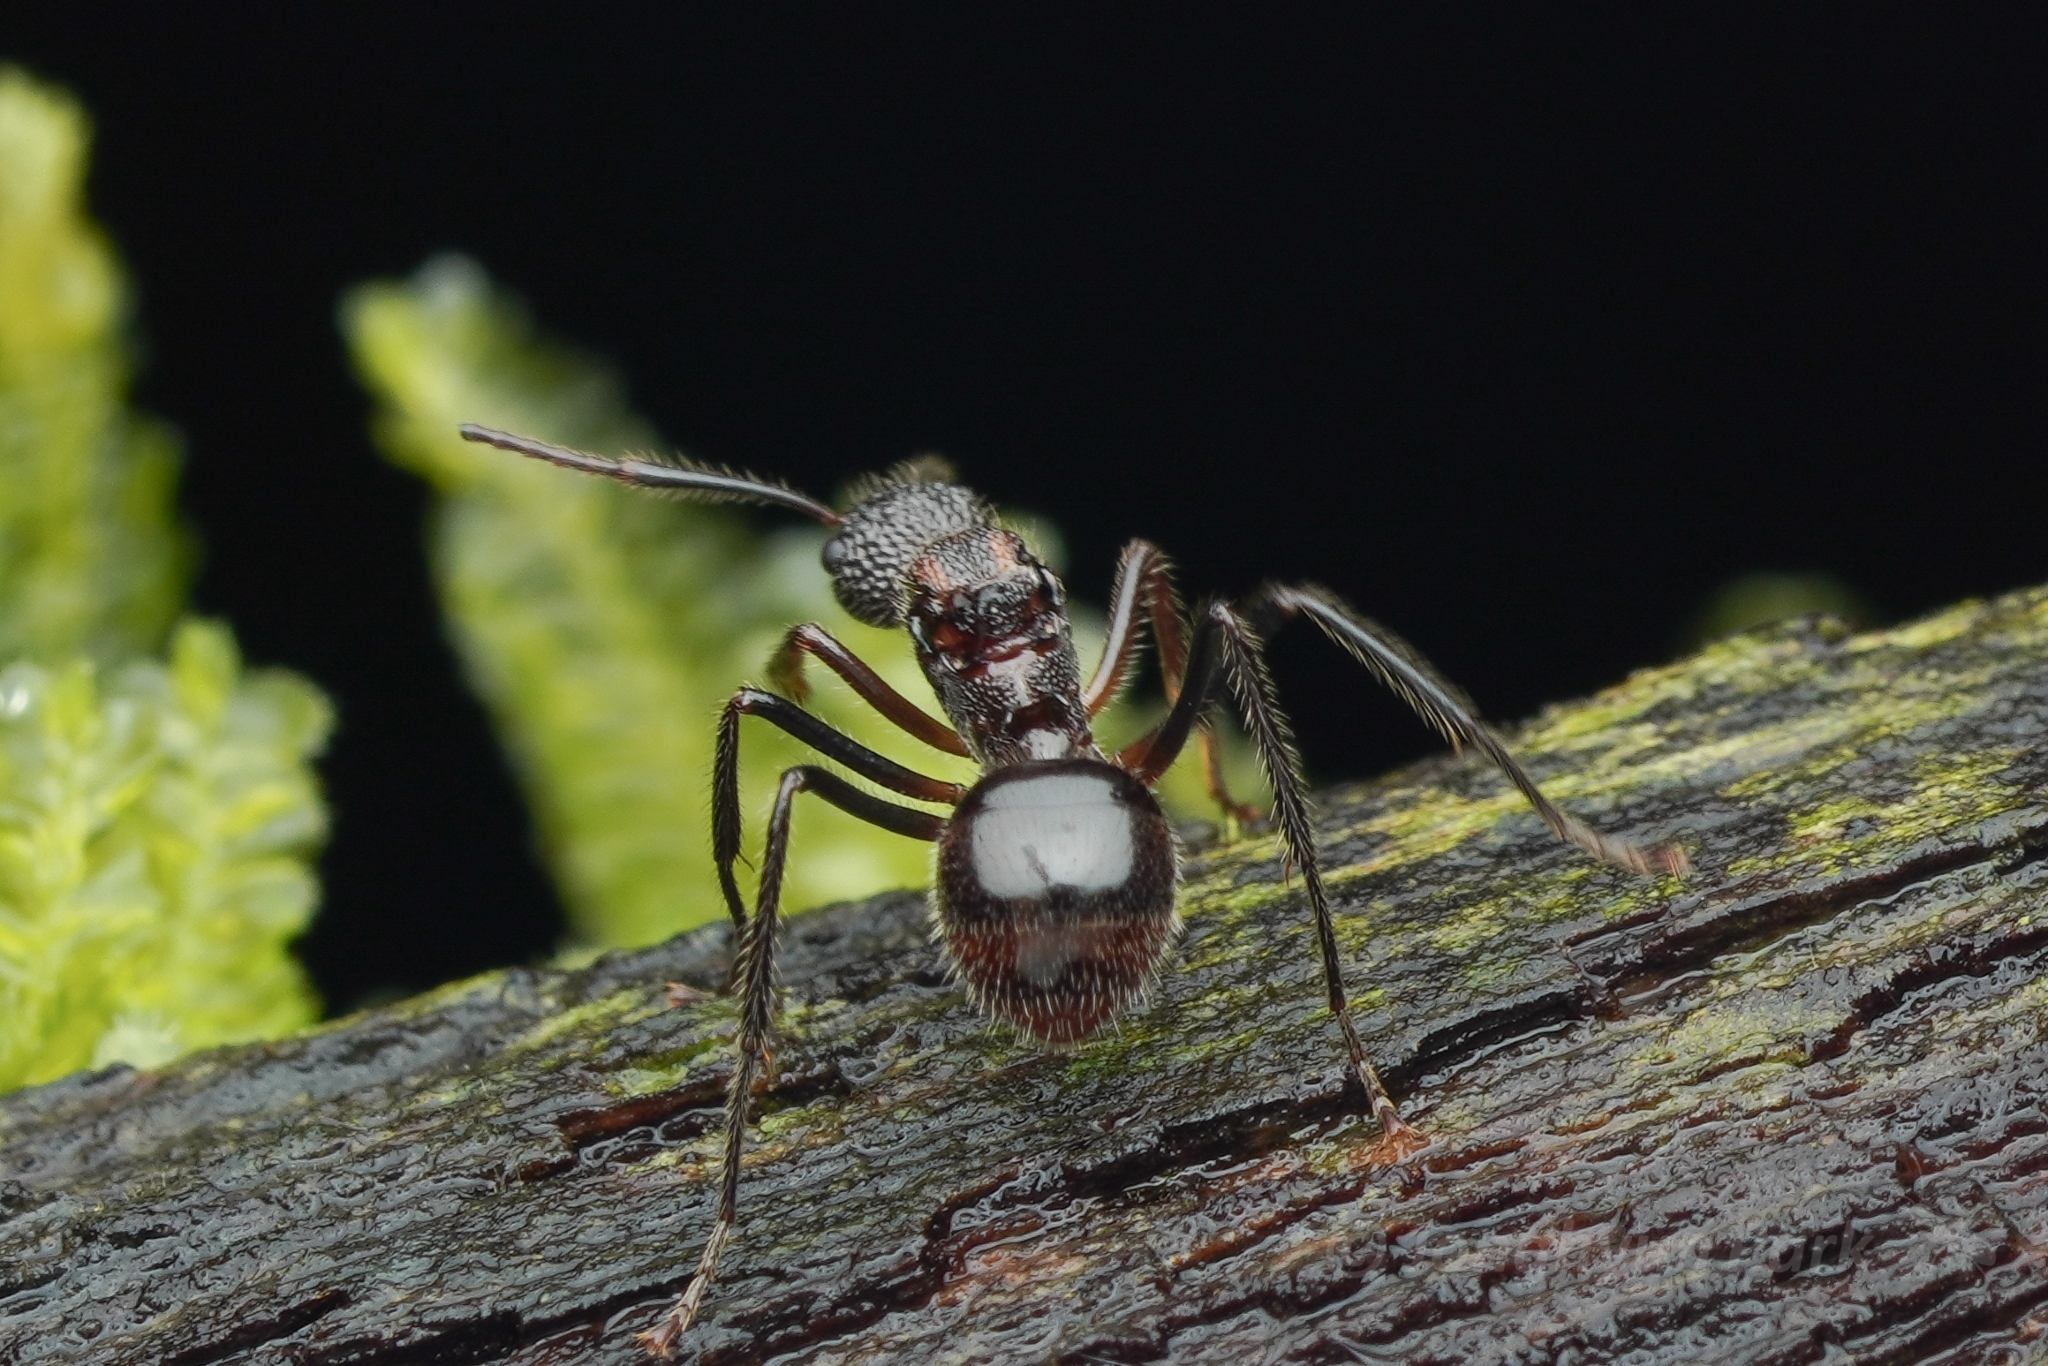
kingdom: Animalia
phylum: Arthropoda
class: Insecta
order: Hymenoptera
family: Formicidae
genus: Dolichoderus
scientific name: Dolichoderus beccarii
